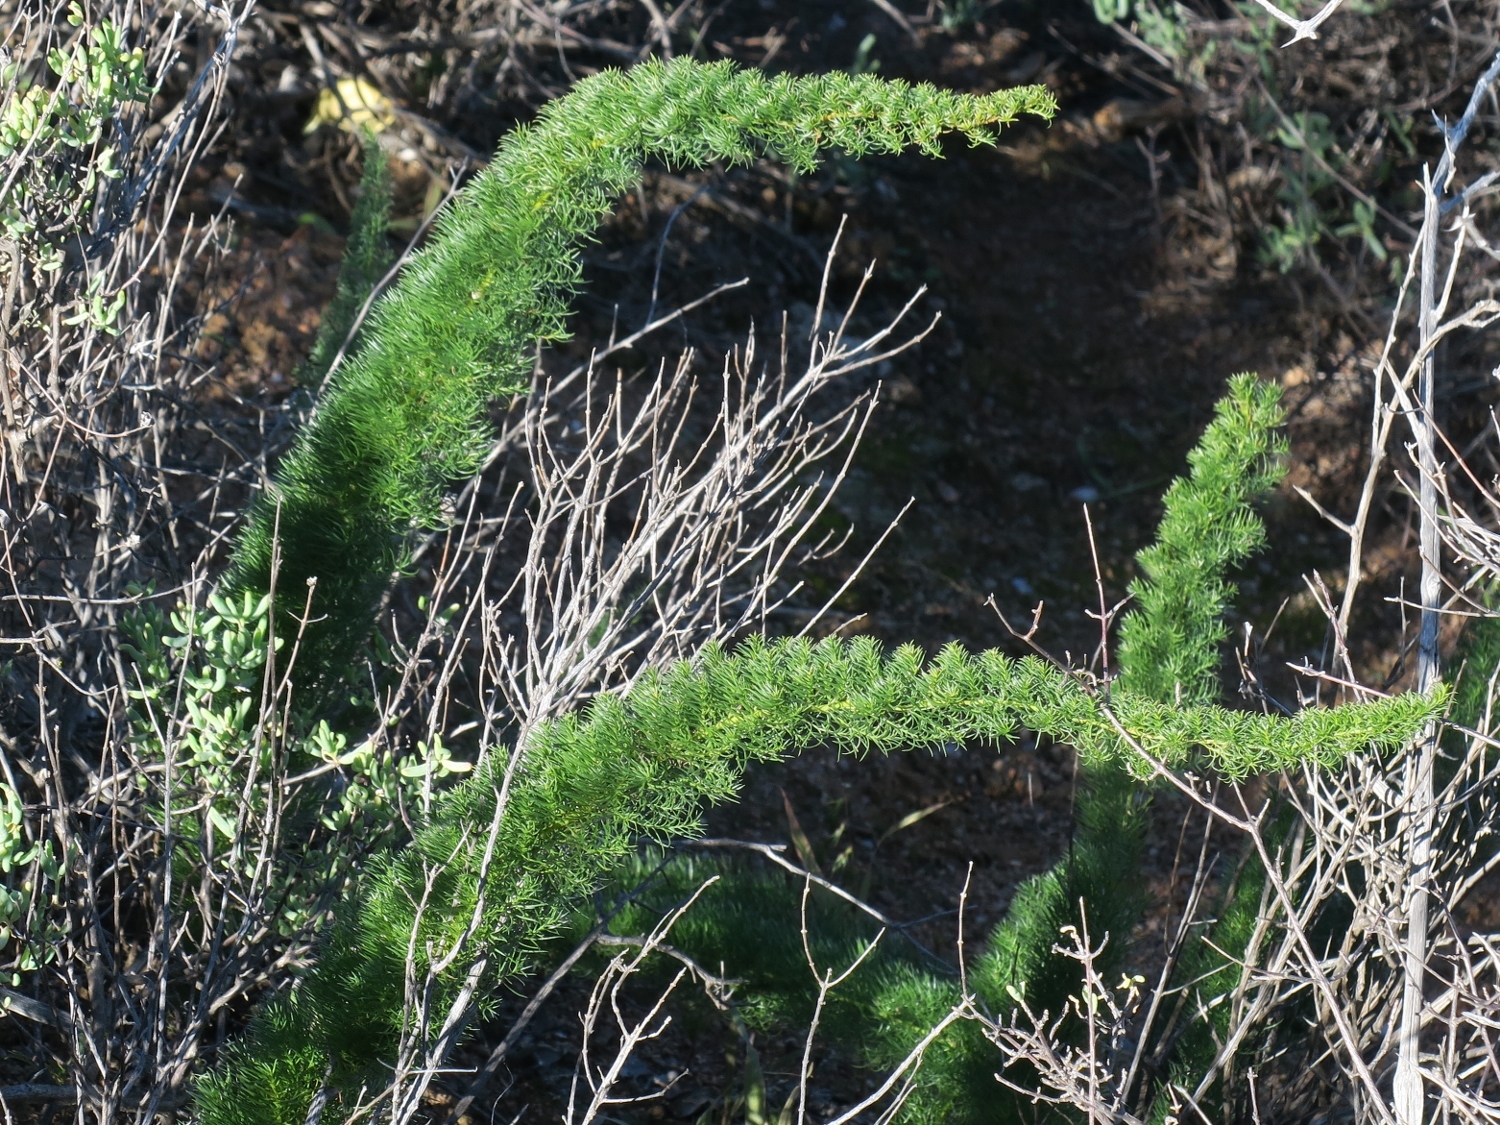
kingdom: Plantae
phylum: Tracheophyta
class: Liliopsida
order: Asparagales
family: Asparagaceae
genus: Asparagus
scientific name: Asparagus juniperoides
